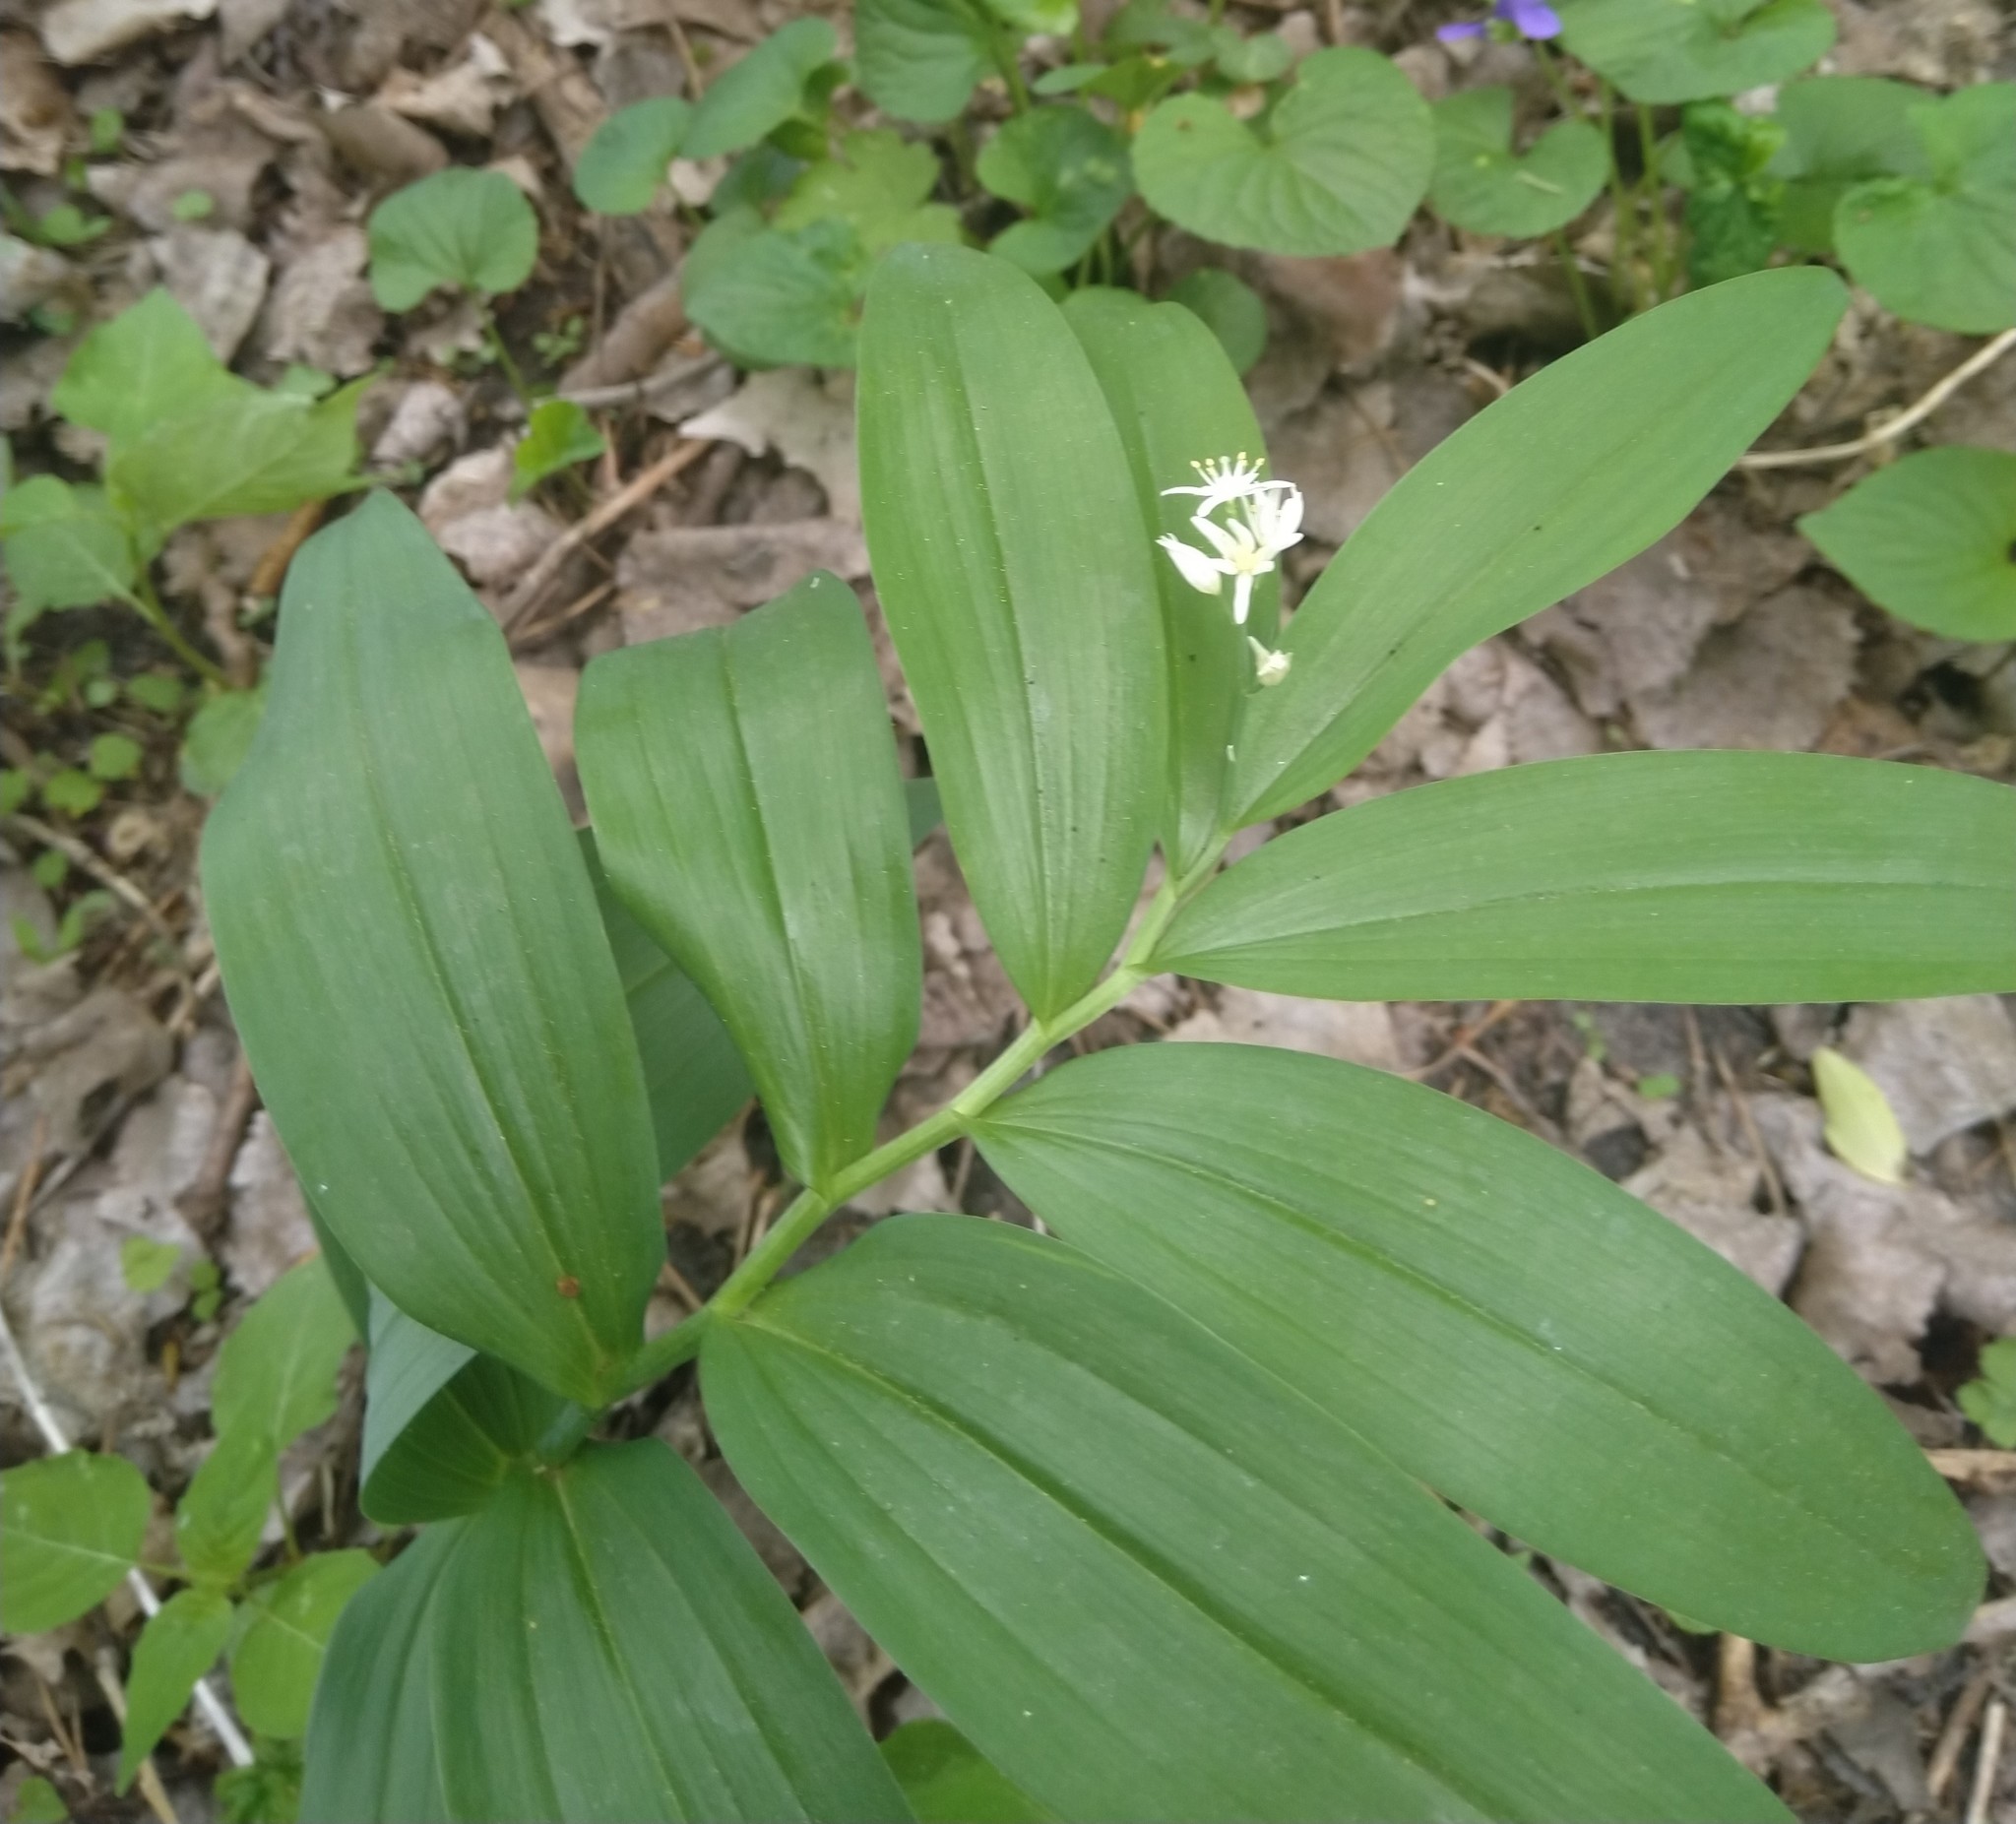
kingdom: Plantae
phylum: Tracheophyta
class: Liliopsida
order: Asparagales
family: Asparagaceae
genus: Maianthemum
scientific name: Maianthemum stellatum
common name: Little false solomon's seal
